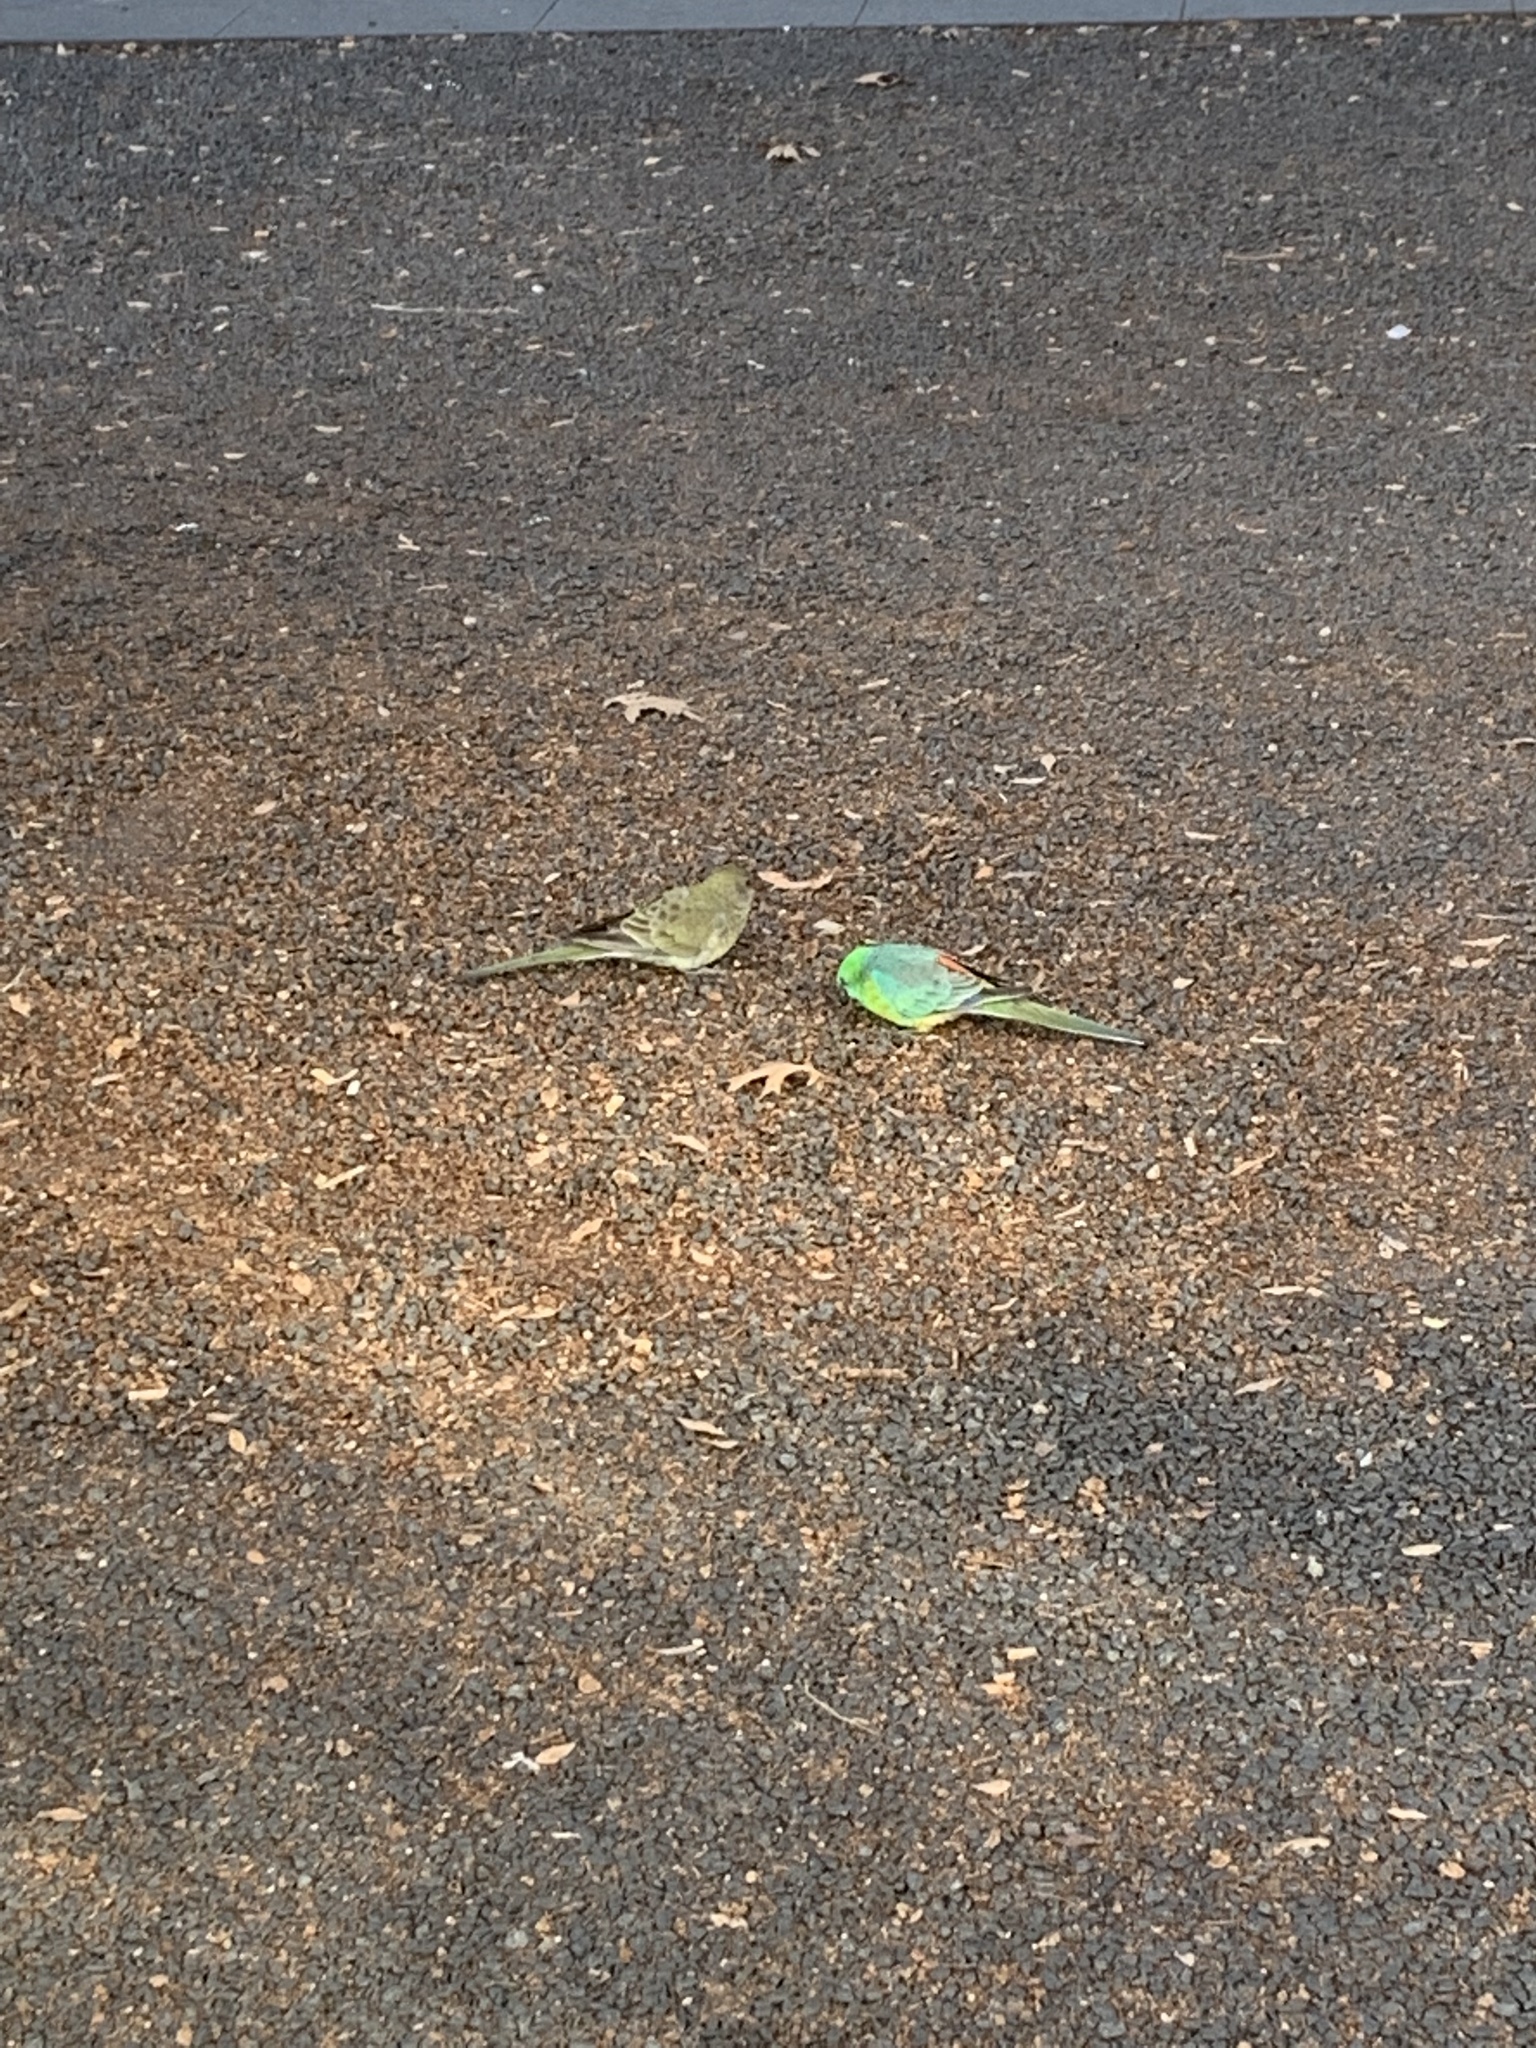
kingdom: Animalia
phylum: Chordata
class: Aves
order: Psittaciformes
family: Psittacidae
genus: Psephotus
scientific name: Psephotus haematonotus
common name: Red-rumped parrot
